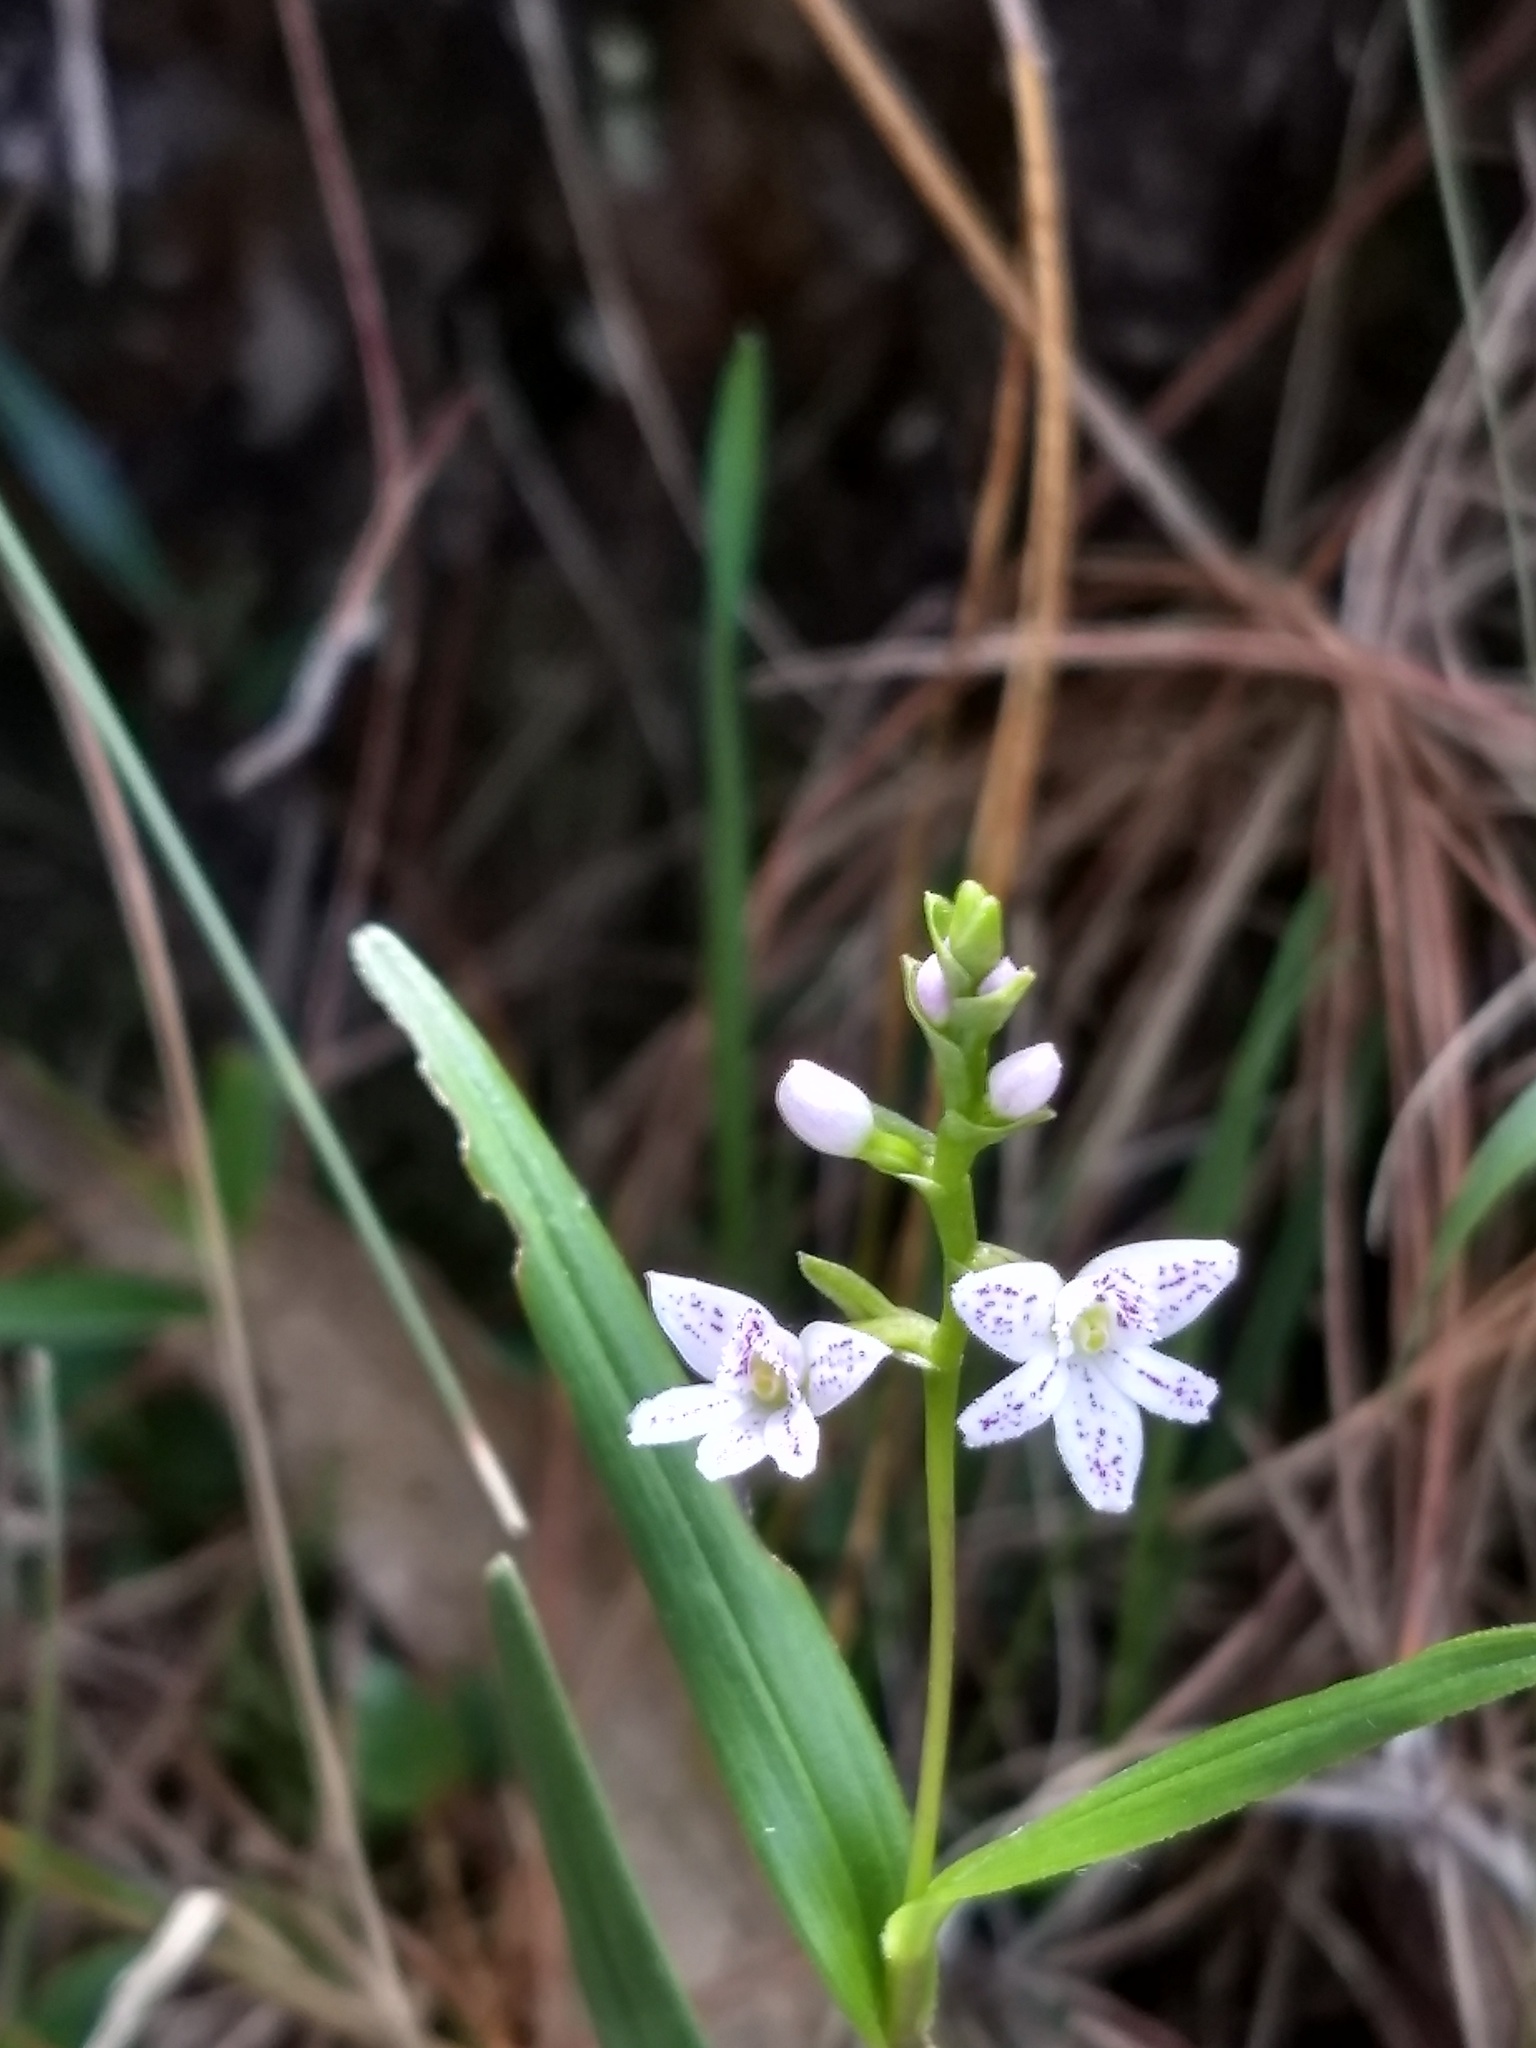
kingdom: Plantae
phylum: Tracheophyta
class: Liliopsida
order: Asparagales
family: Orchidaceae
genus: Epidendrum
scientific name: Epidendrum fimbriatum
